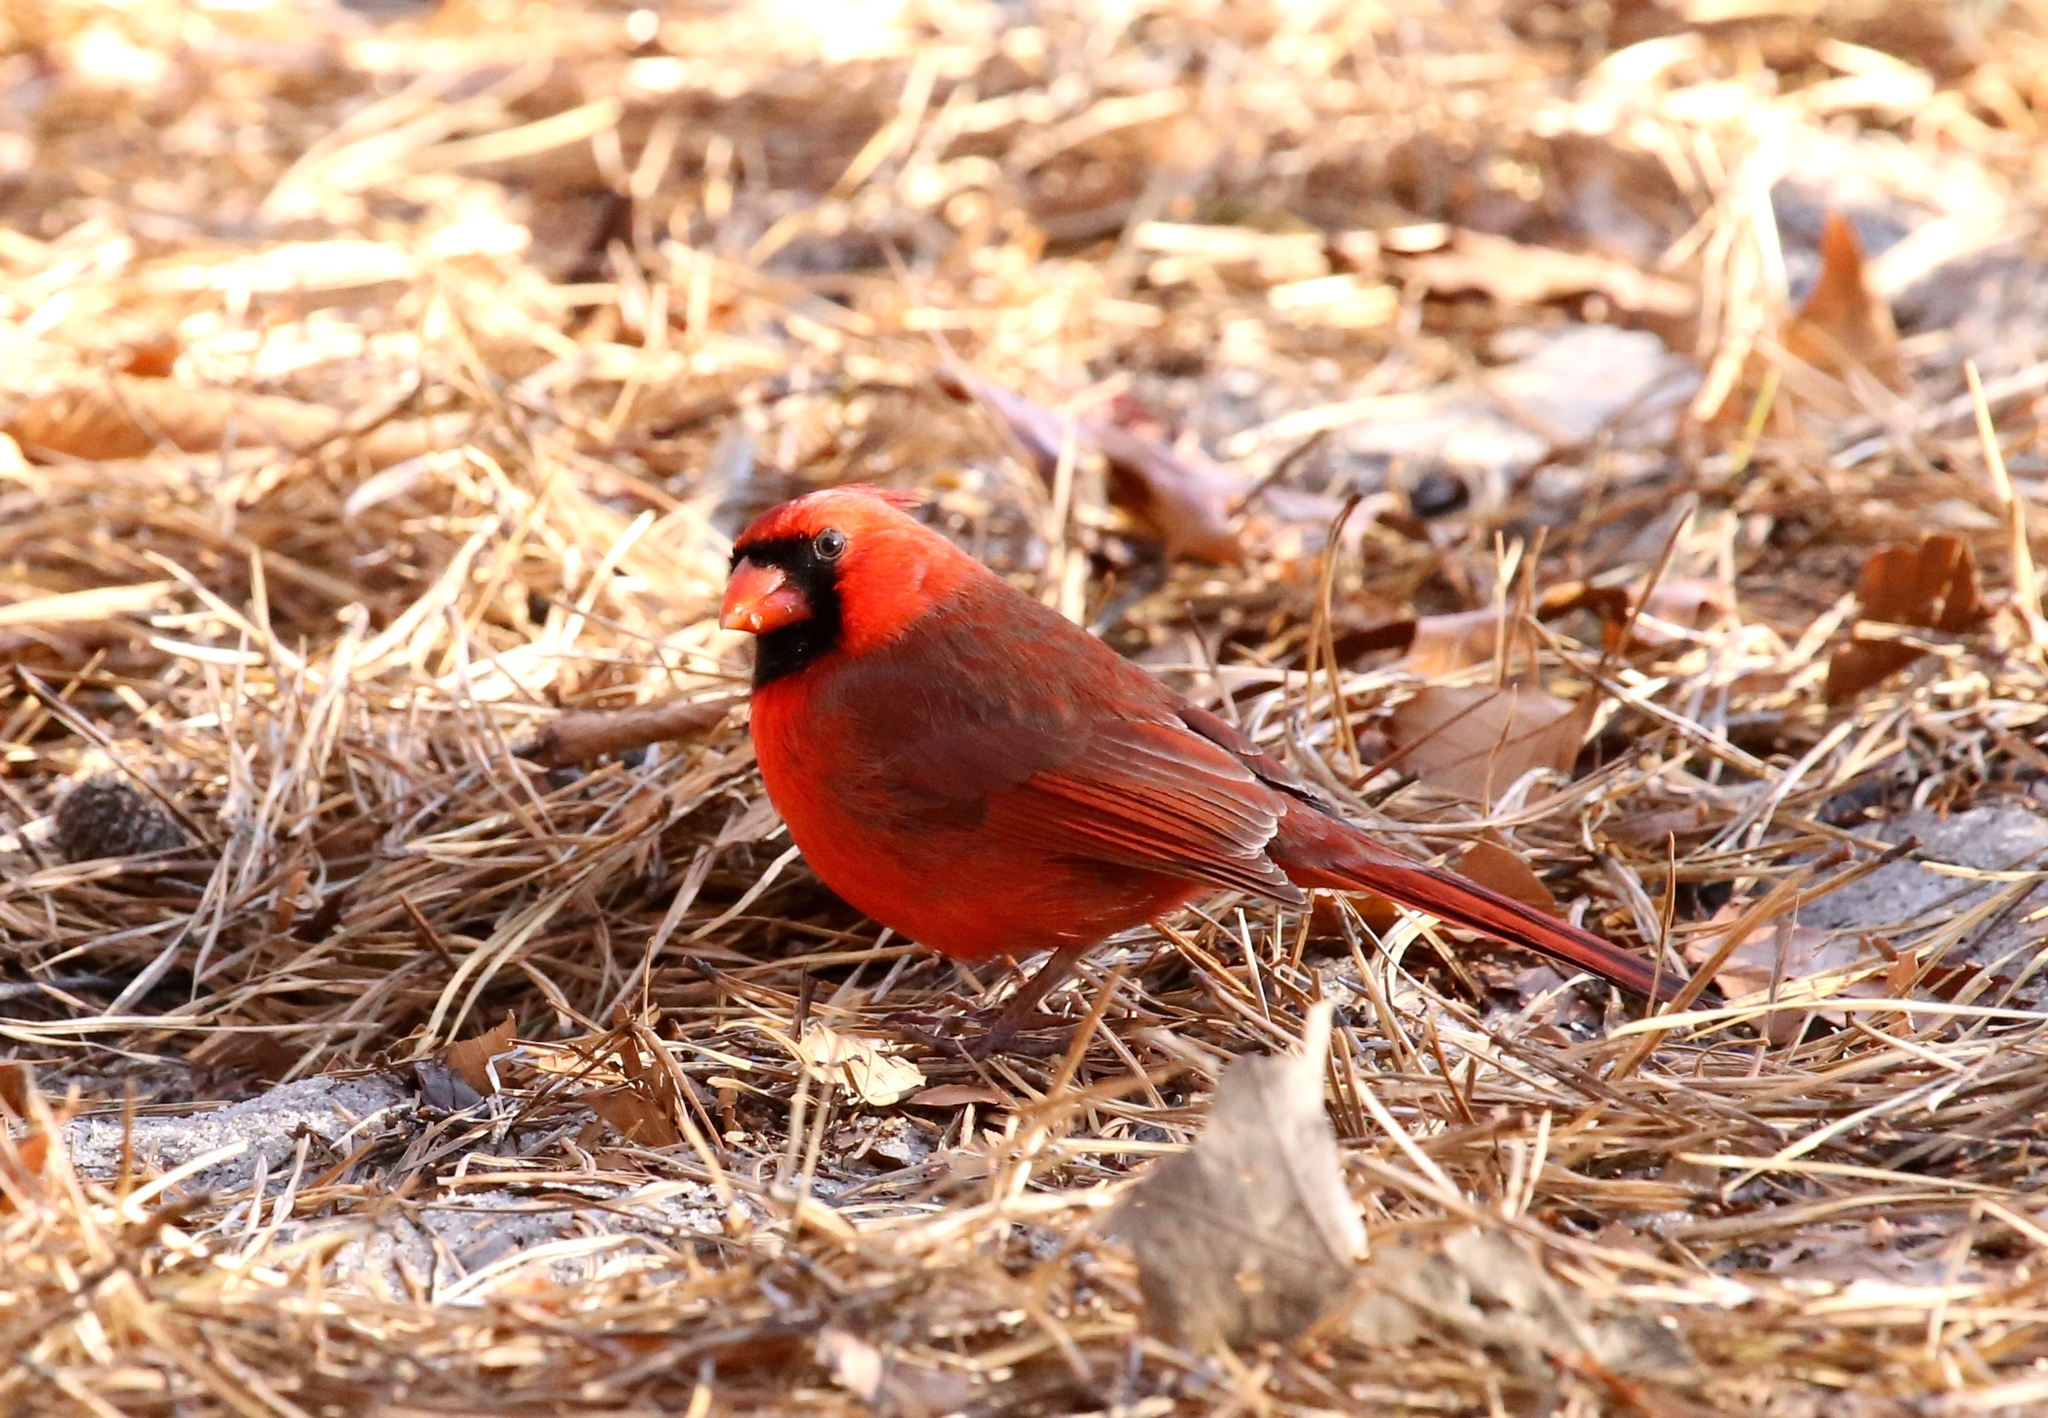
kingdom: Animalia
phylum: Chordata
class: Aves
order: Passeriformes
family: Cardinalidae
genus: Cardinalis
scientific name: Cardinalis cardinalis
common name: Northern cardinal
